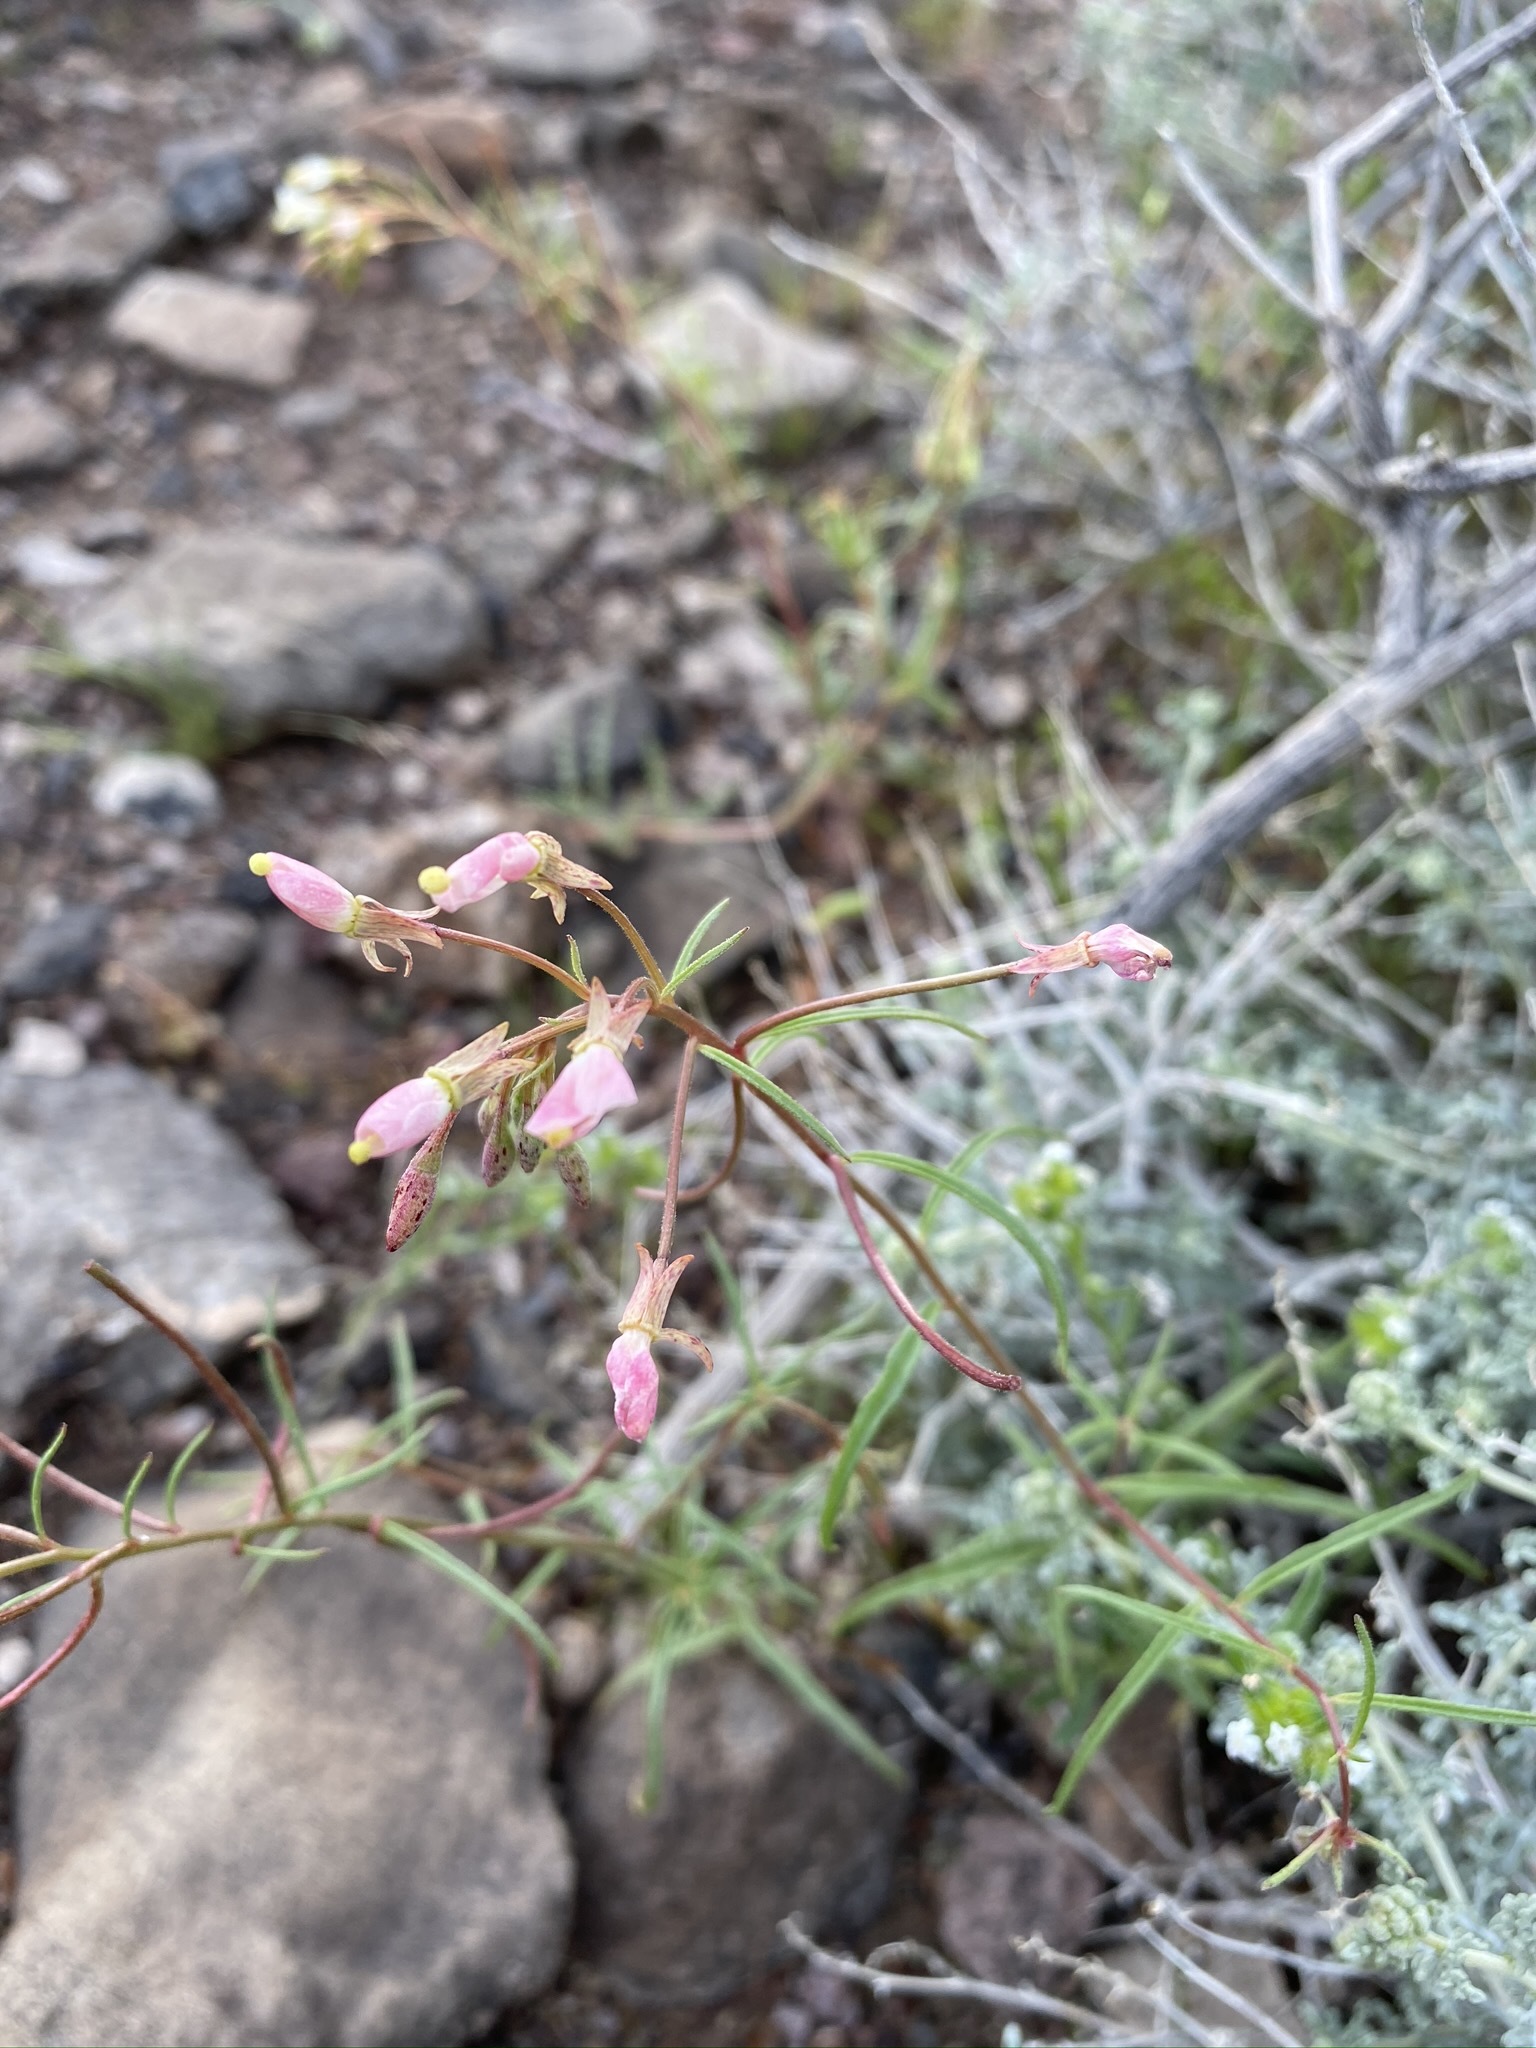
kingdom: Plantae
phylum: Tracheophyta
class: Magnoliopsida
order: Myrtales
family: Onagraceae
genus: Eremothera
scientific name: Eremothera refracta
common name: Narrowleaf suncup
